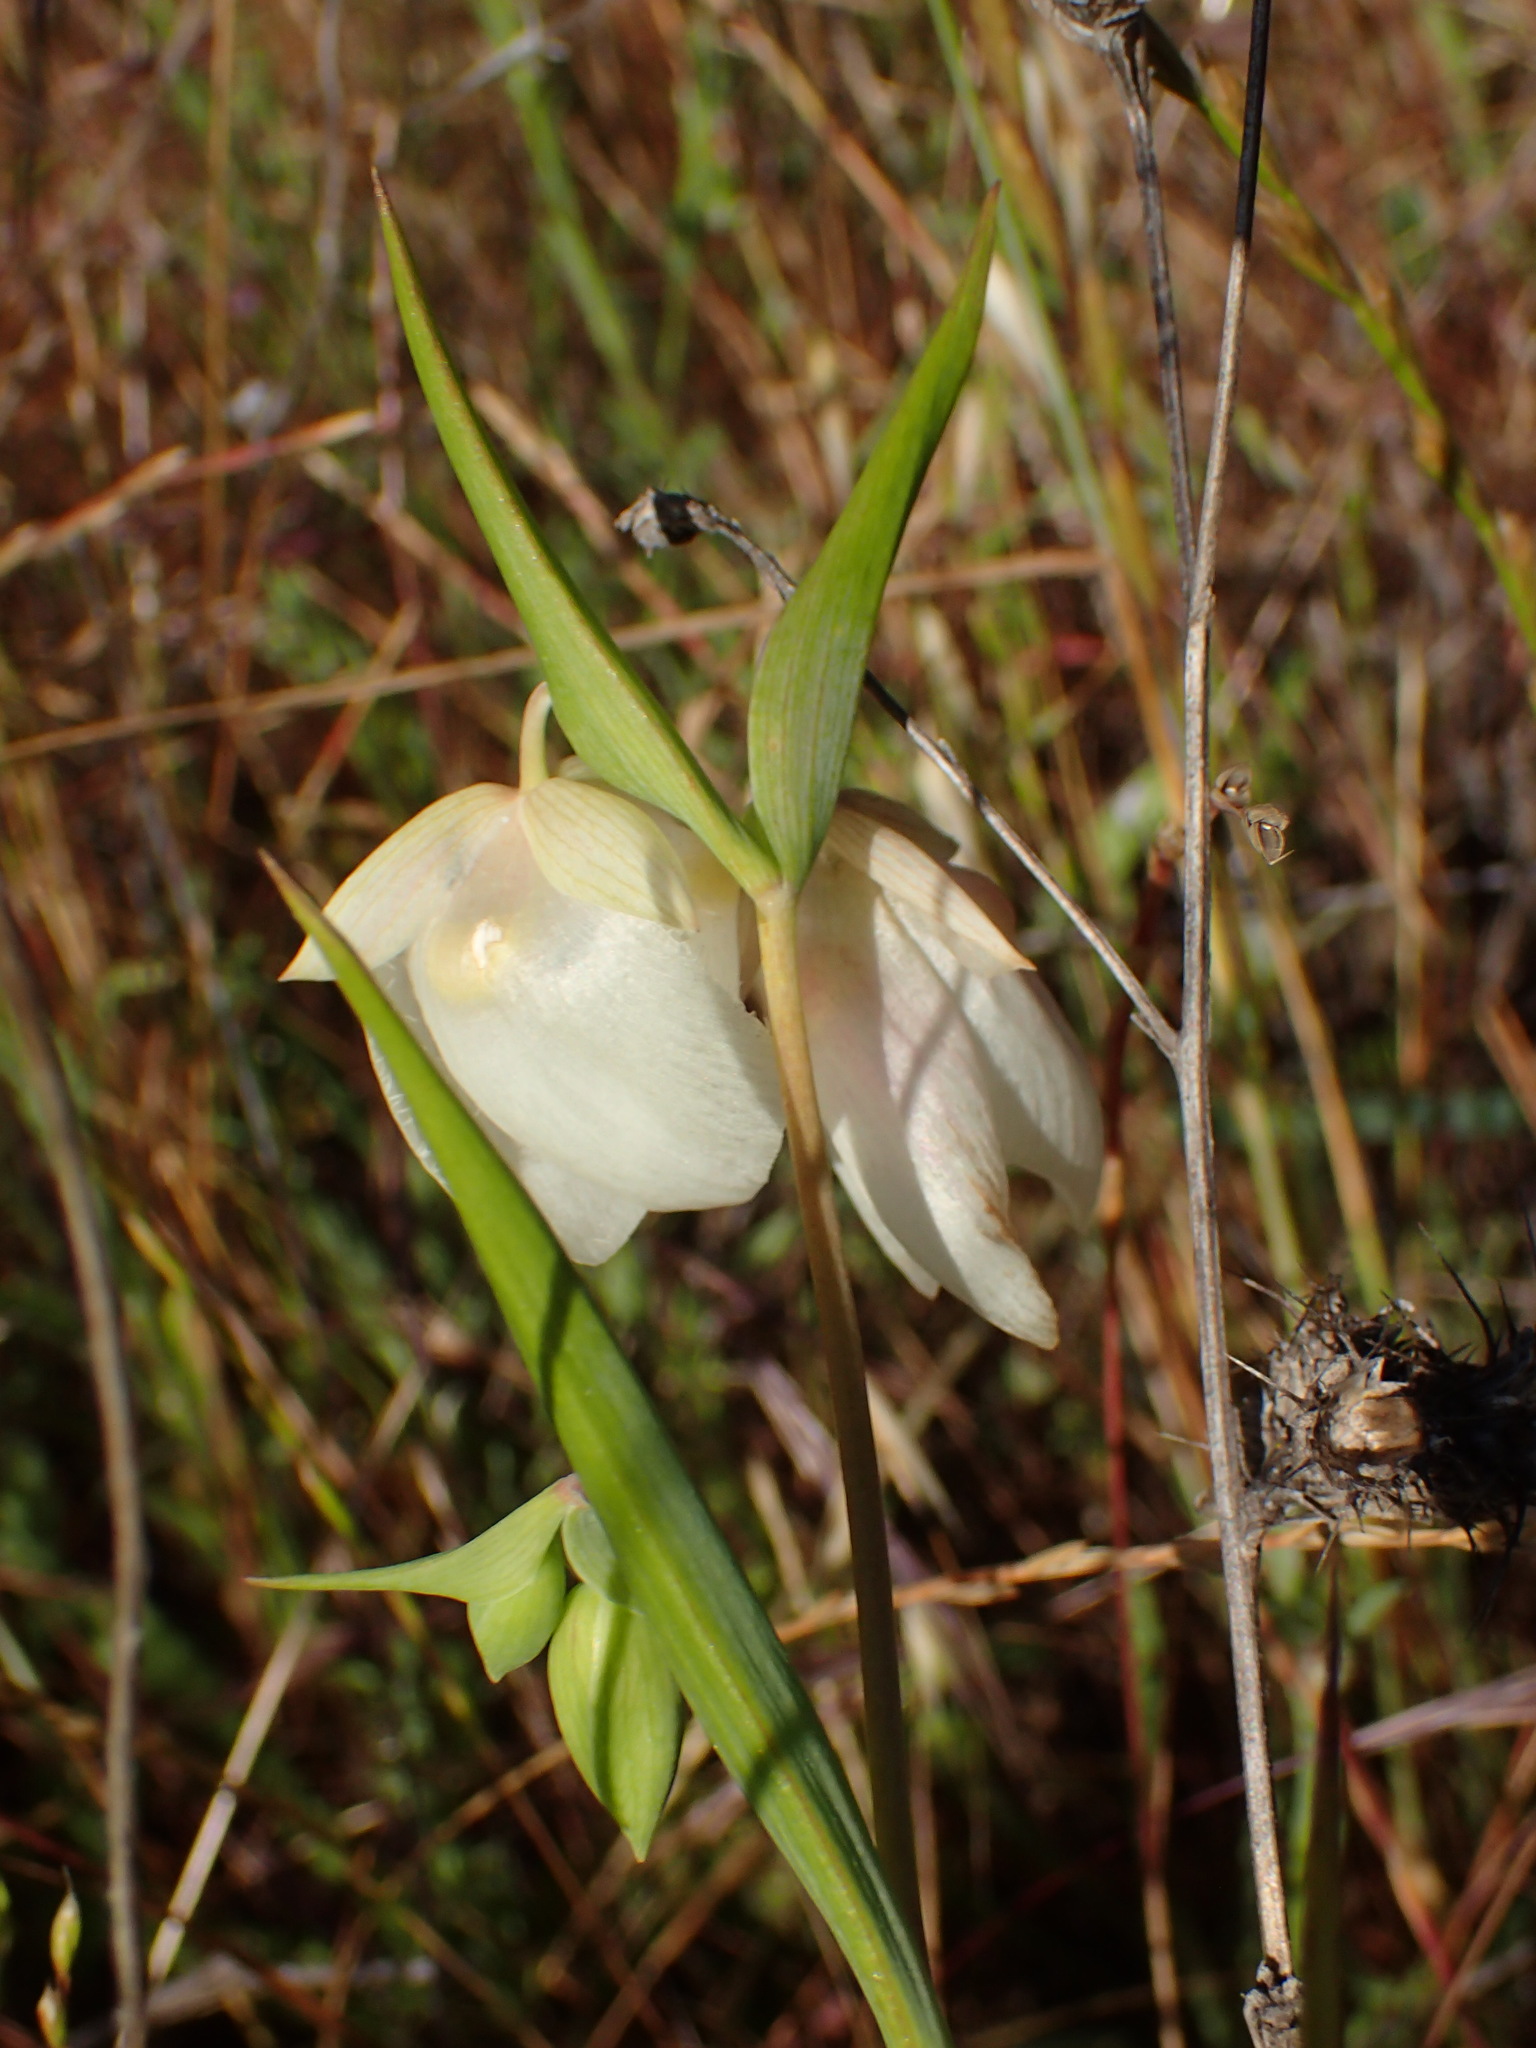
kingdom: Plantae
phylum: Tracheophyta
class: Liliopsida
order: Liliales
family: Liliaceae
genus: Calochortus
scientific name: Calochortus albus
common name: Fairy-lantern
